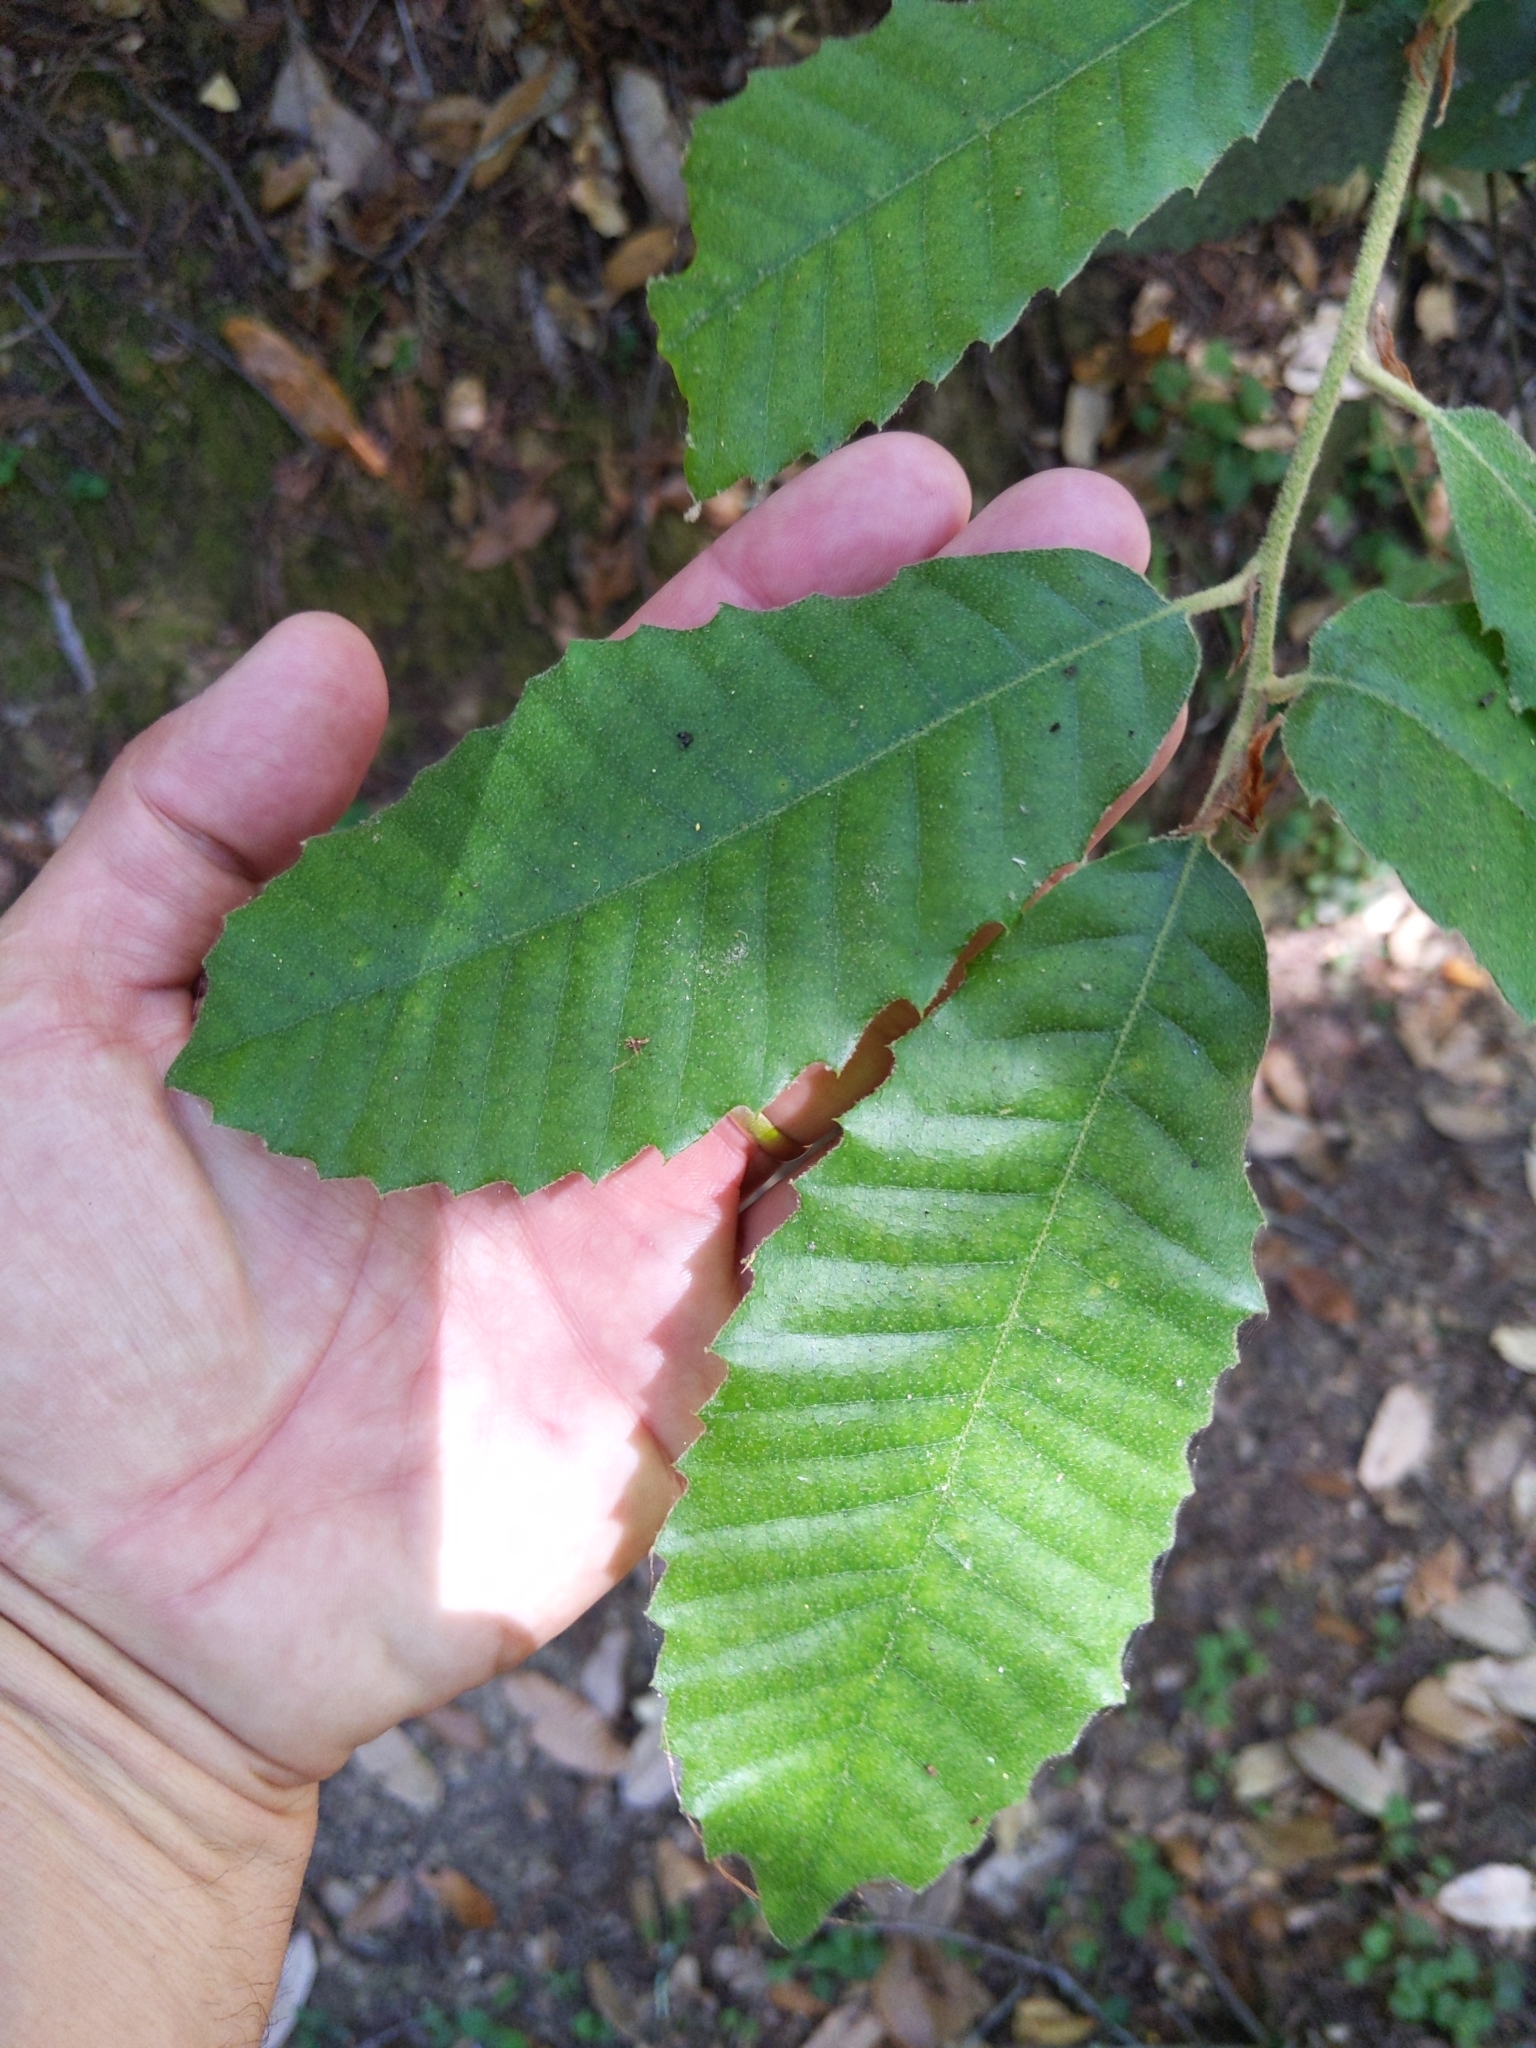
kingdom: Plantae
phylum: Tracheophyta
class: Magnoliopsida
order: Fagales
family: Fagaceae
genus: Notholithocarpus
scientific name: Notholithocarpus densiflorus
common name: Tan bark oak
